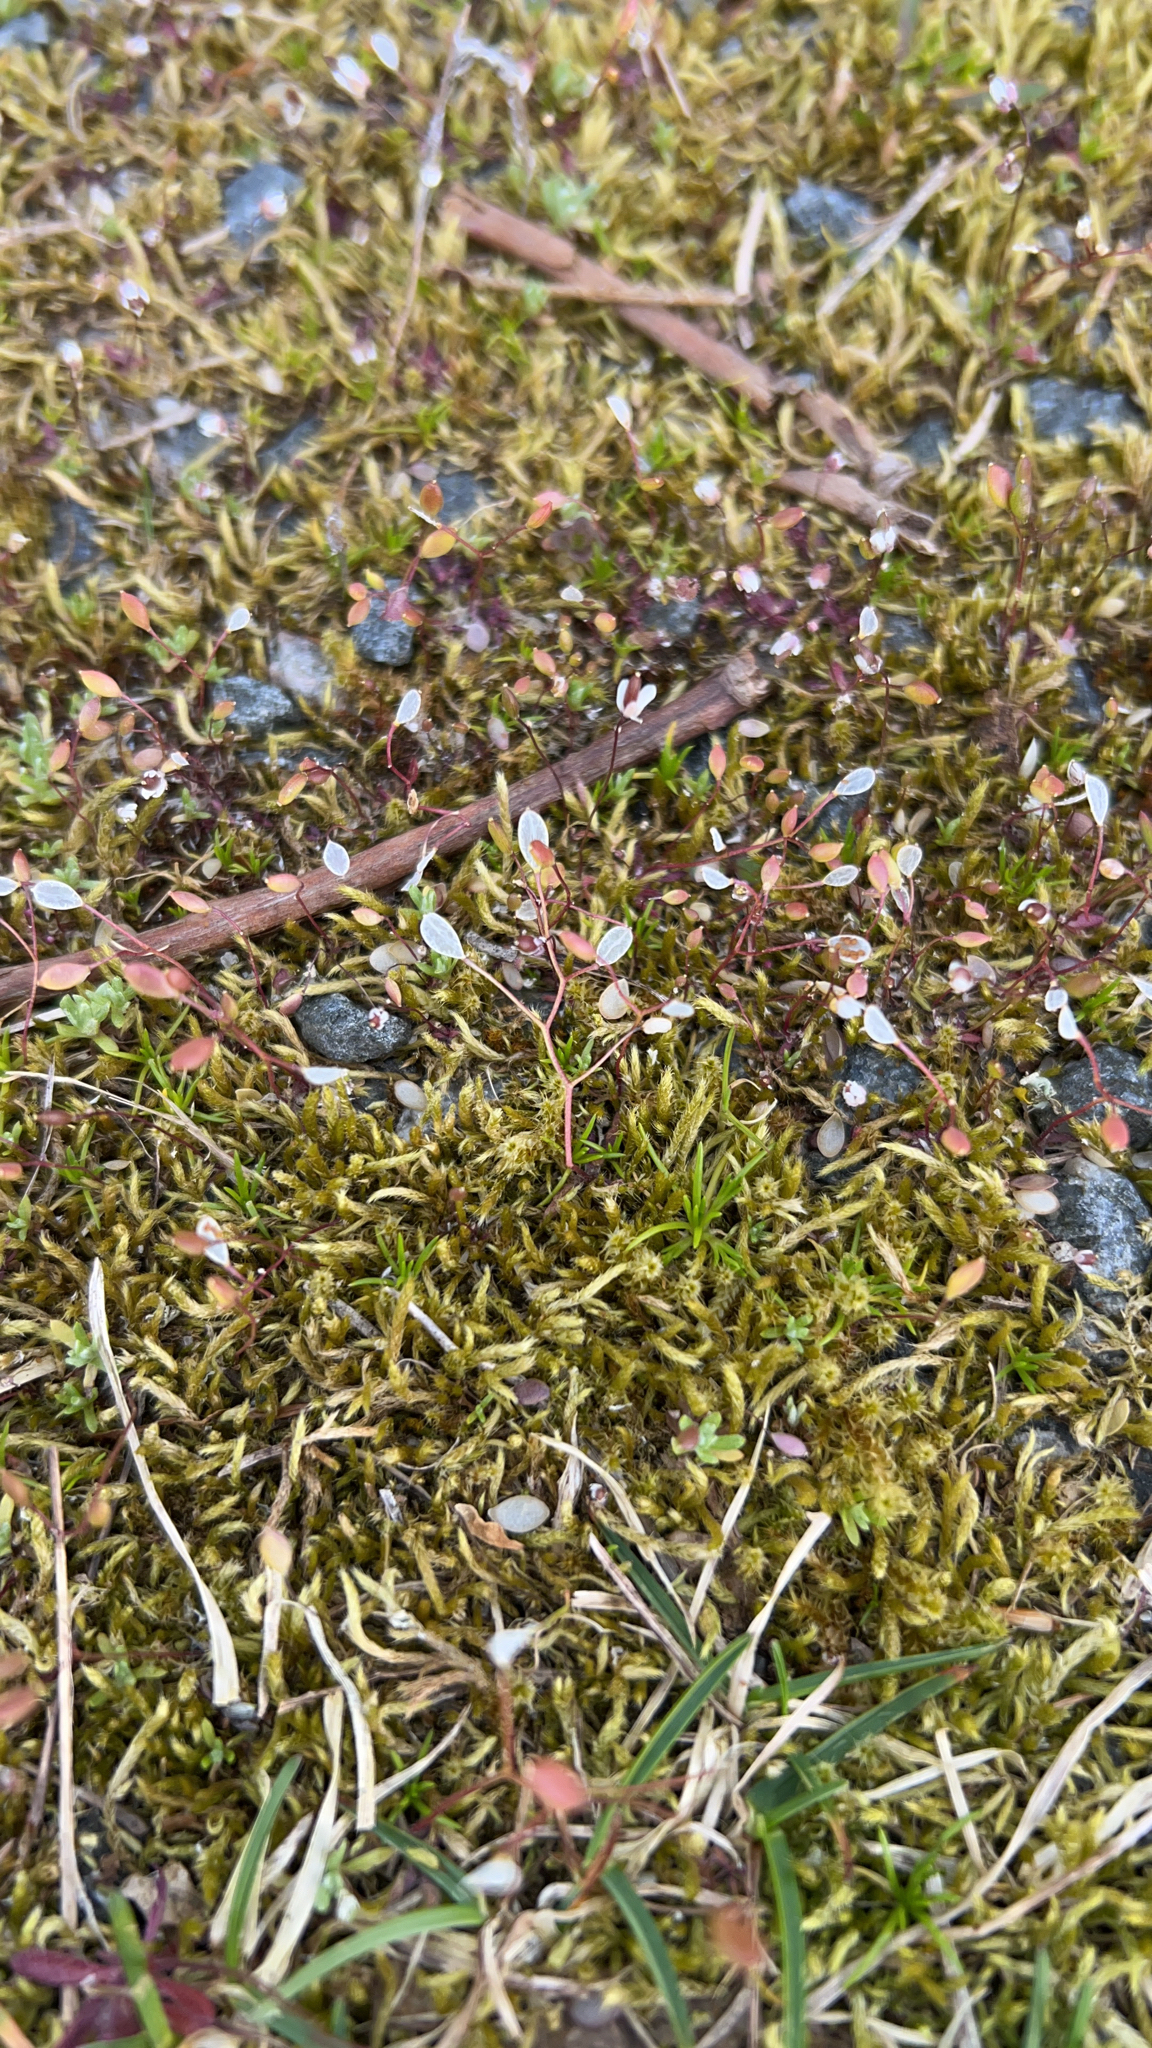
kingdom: Plantae
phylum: Tracheophyta
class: Magnoliopsida
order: Brassicales
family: Brassicaceae
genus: Draba
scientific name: Draba verna
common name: Spring draba
